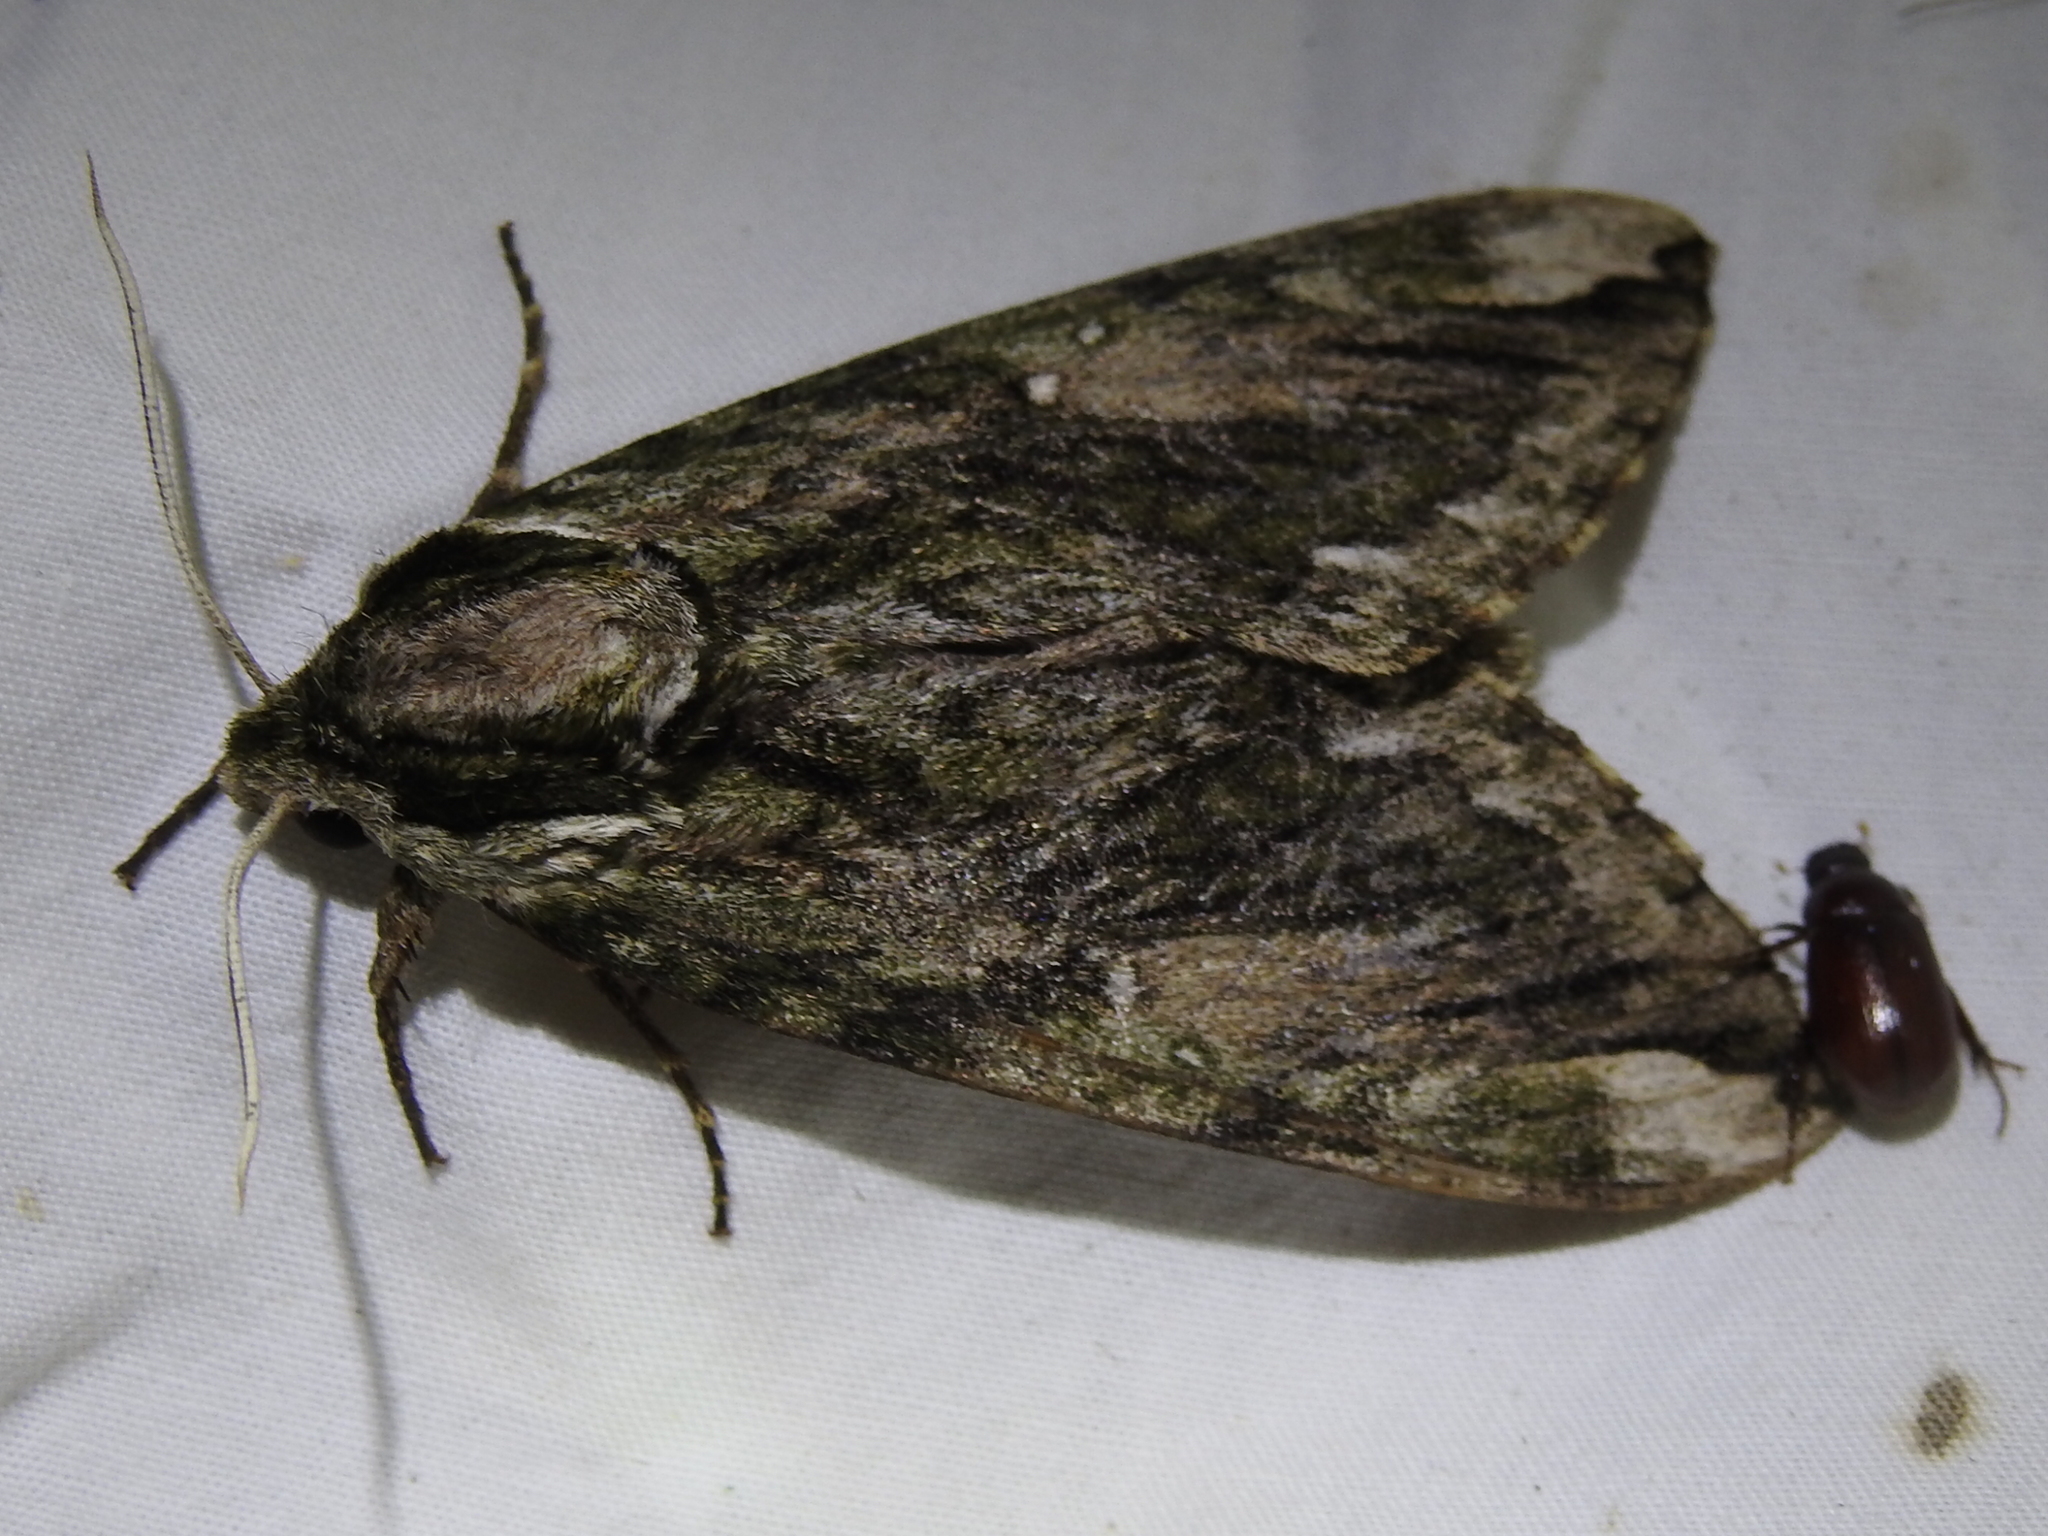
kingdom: Animalia
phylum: Arthropoda
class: Insecta
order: Lepidoptera
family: Sphingidae
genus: Ceratomia
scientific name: Ceratomia hageni
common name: Hagen's sphinx
